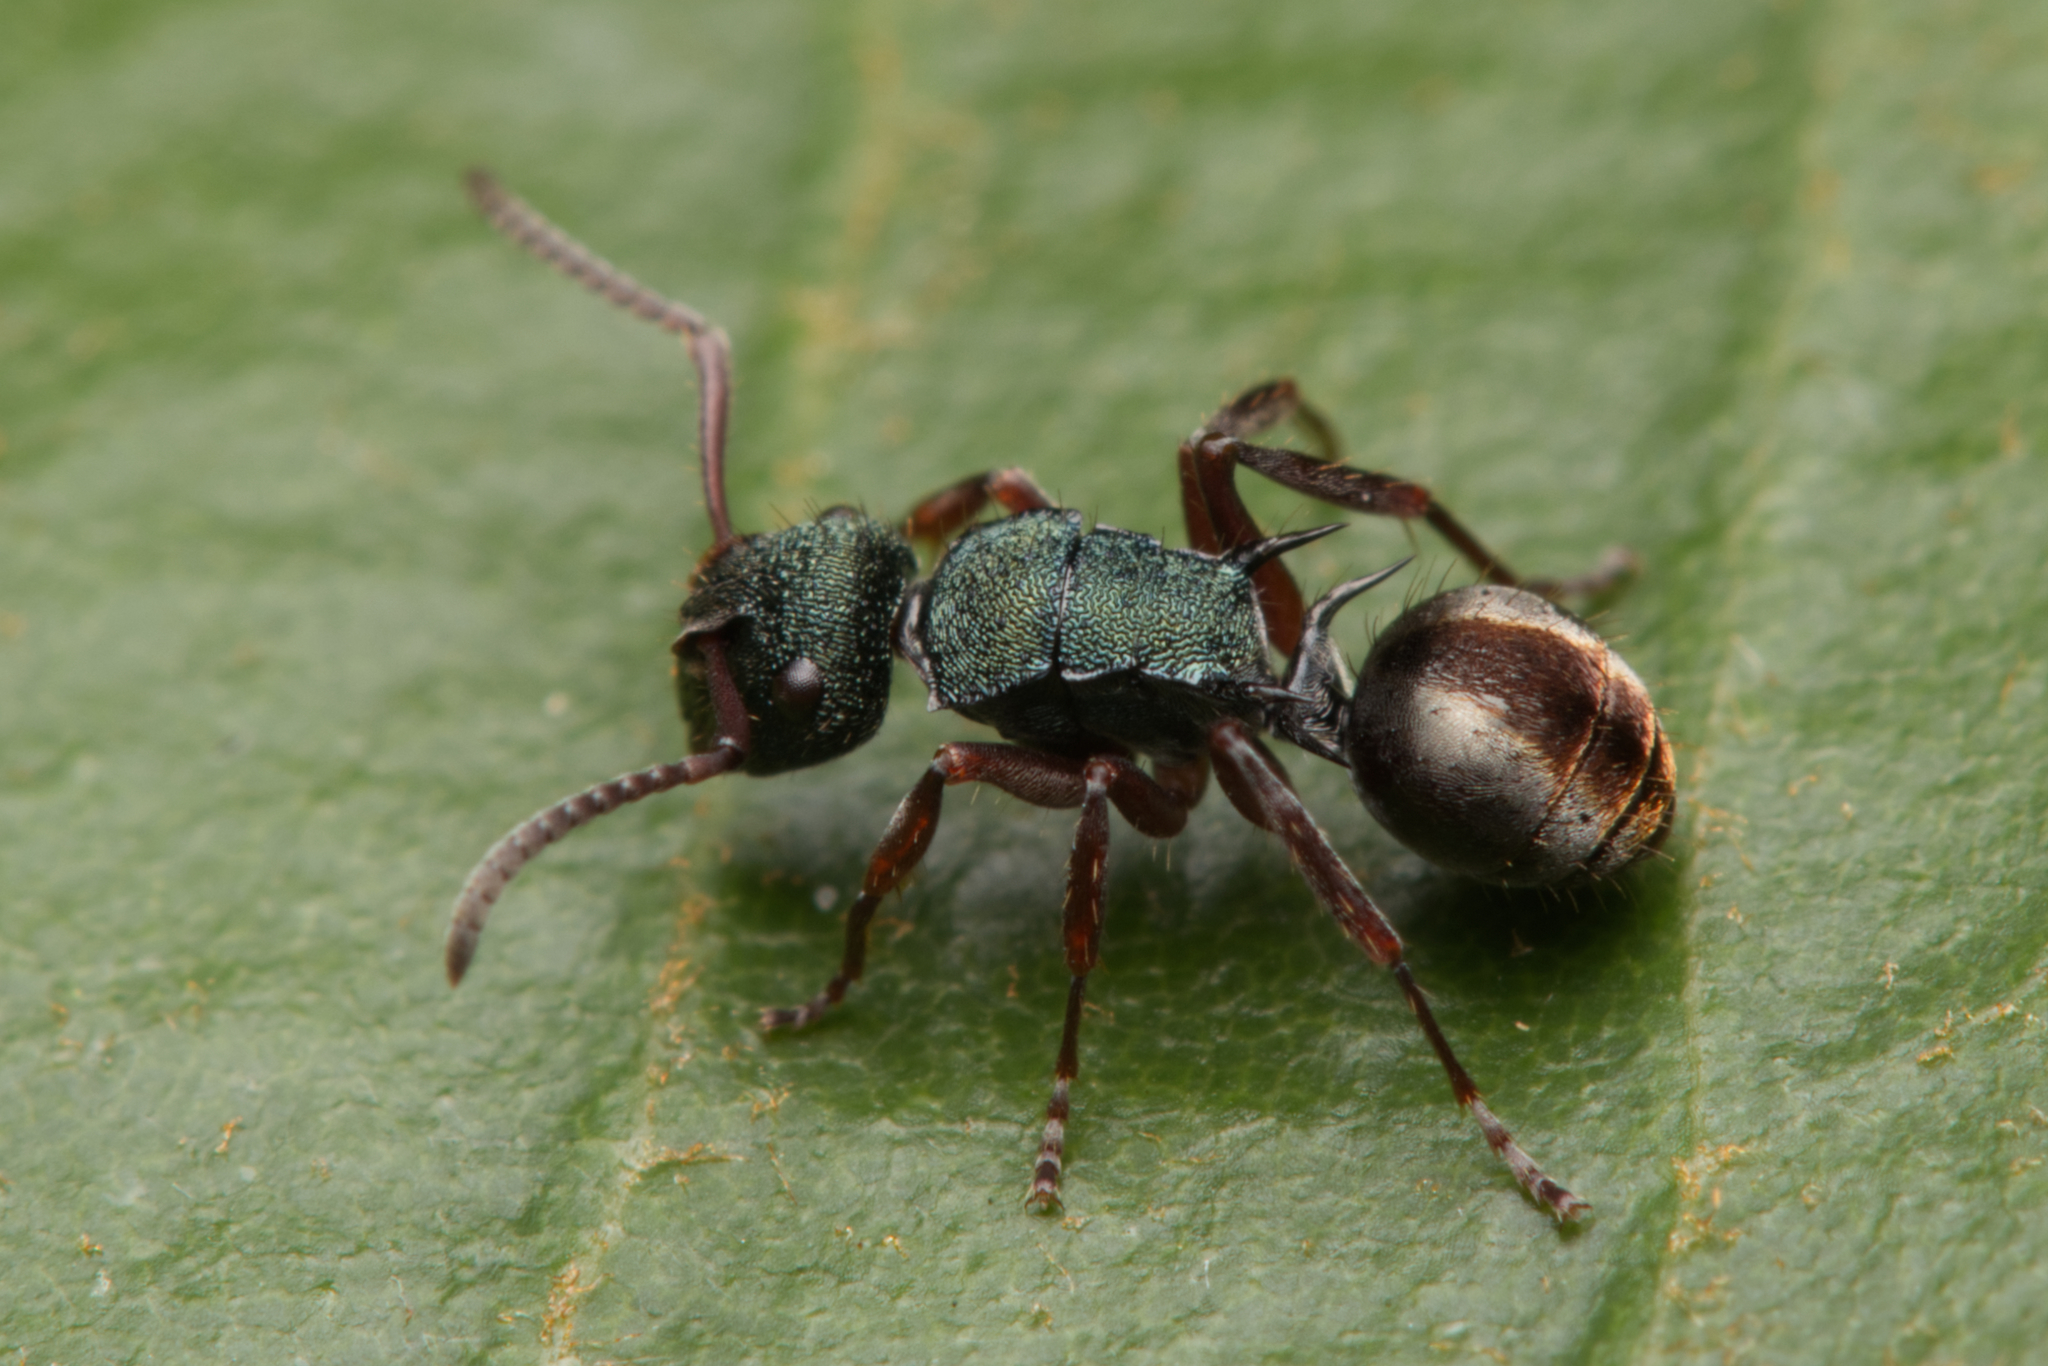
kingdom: Animalia
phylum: Arthropoda
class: Insecta
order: Hymenoptera
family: Formicidae
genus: Polyrhachis
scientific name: Polyrhachis hookeri
